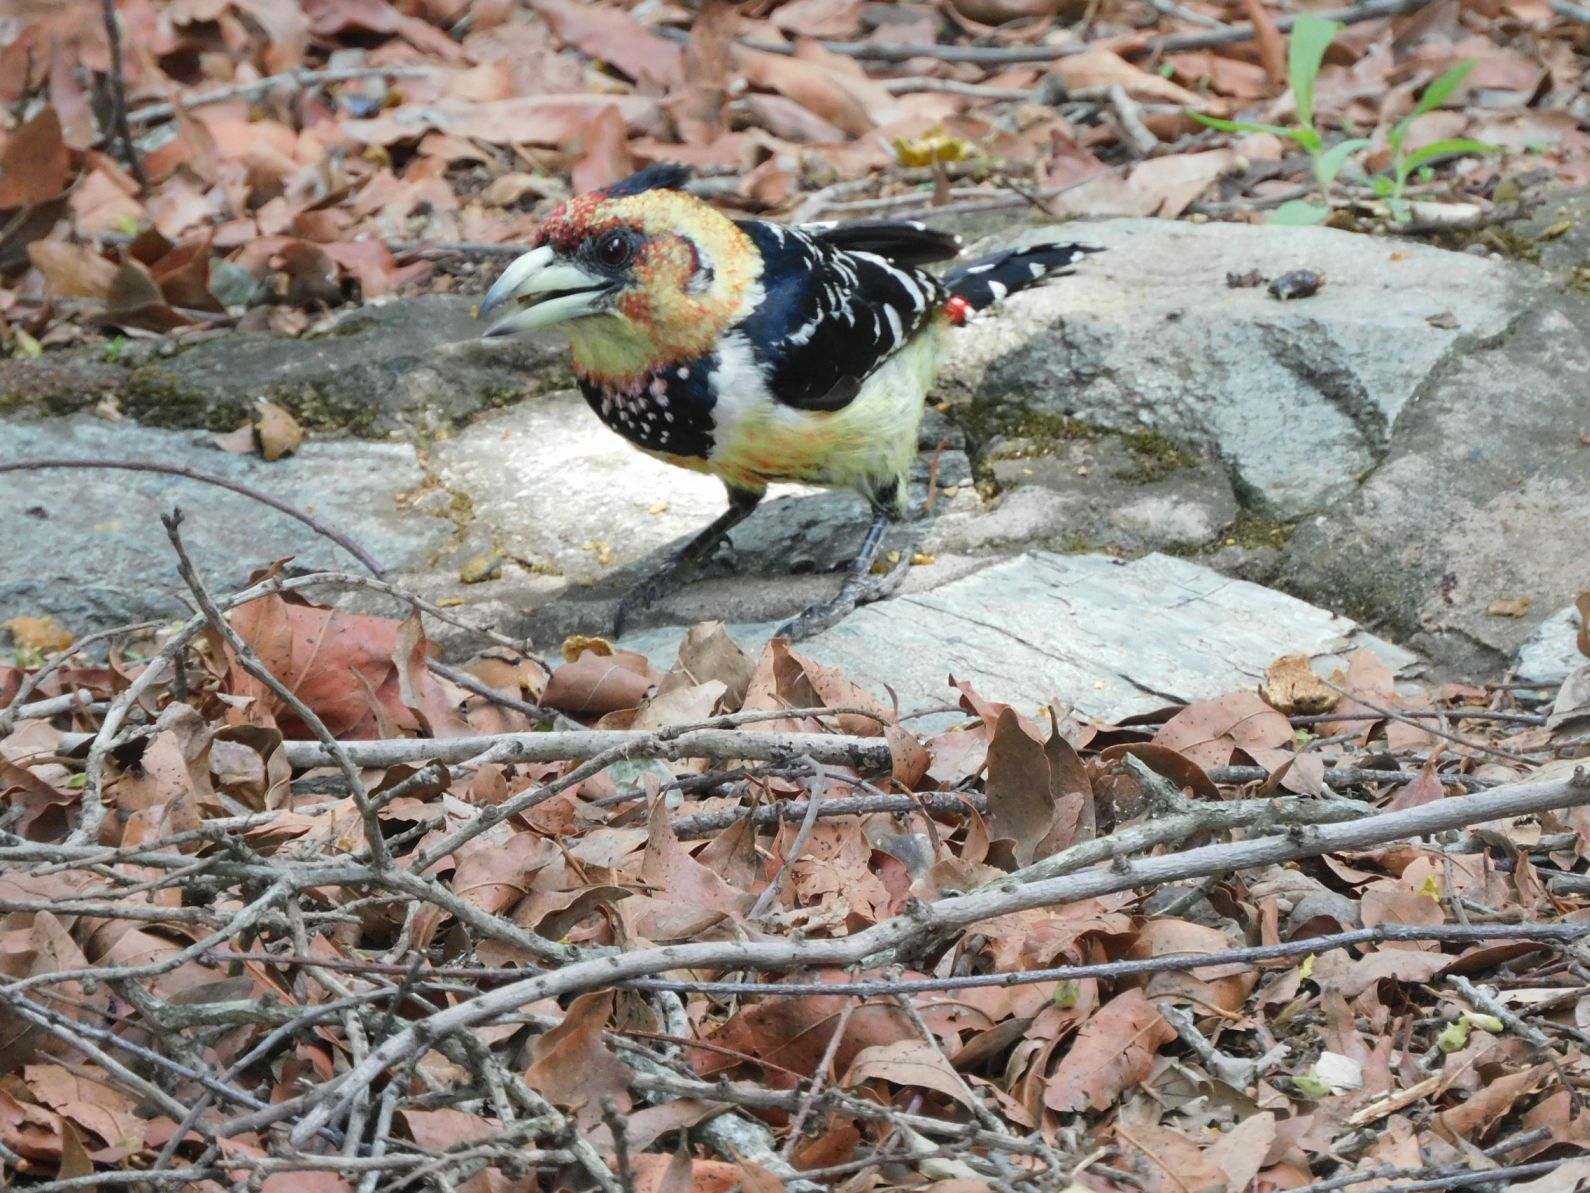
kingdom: Animalia
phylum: Chordata
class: Aves
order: Piciformes
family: Lybiidae
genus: Trachyphonus
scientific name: Trachyphonus vaillantii
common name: Crested barbet
